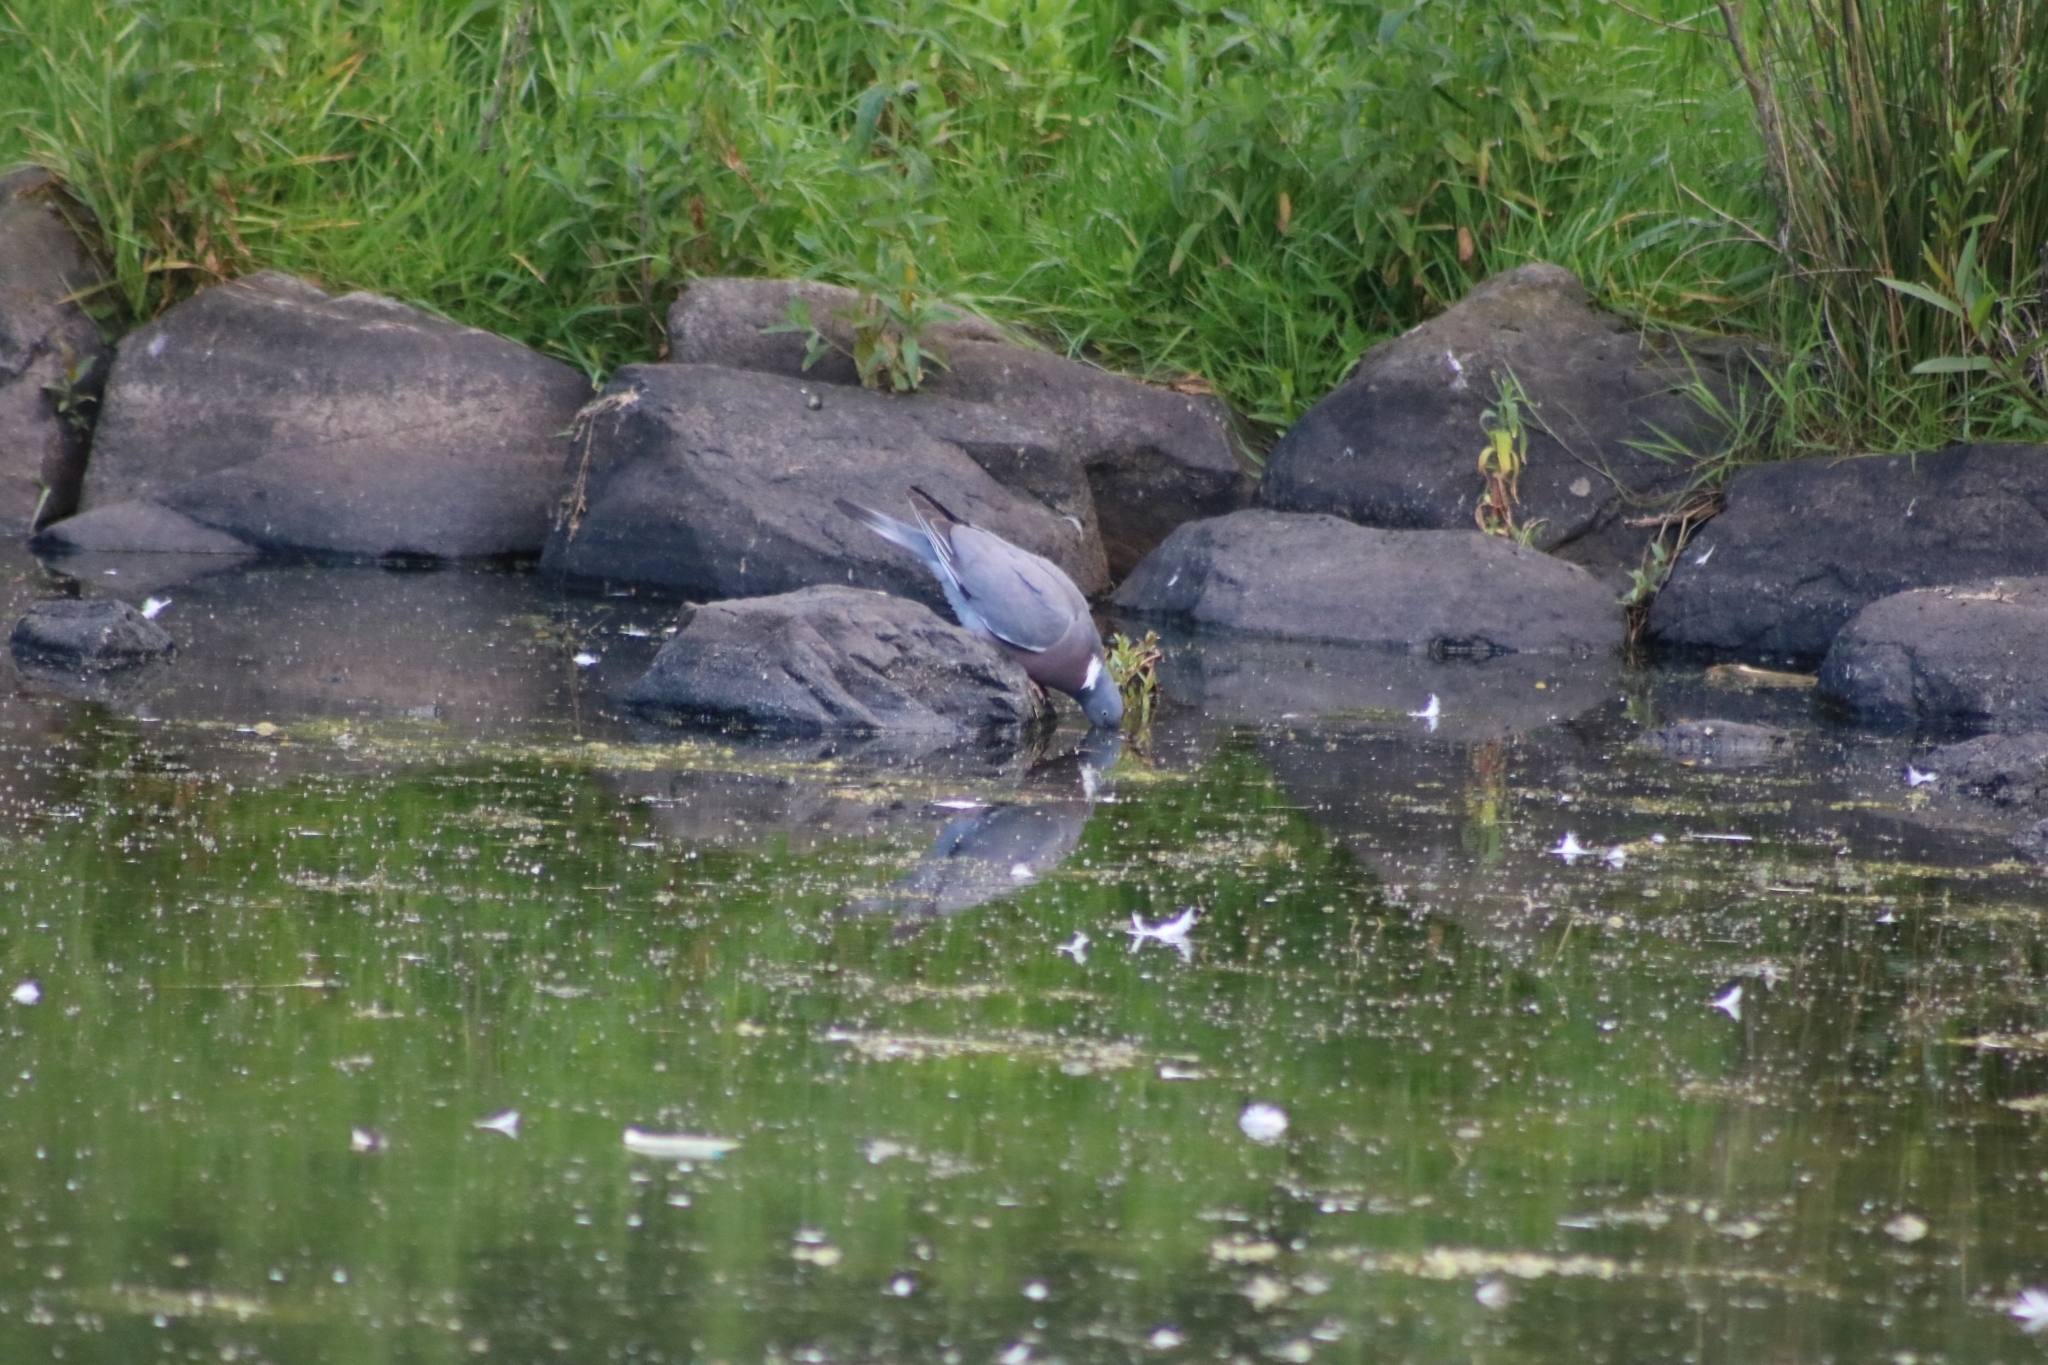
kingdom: Animalia
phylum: Chordata
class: Aves
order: Columbiformes
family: Columbidae
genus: Columba
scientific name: Columba palumbus
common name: Common wood pigeon
